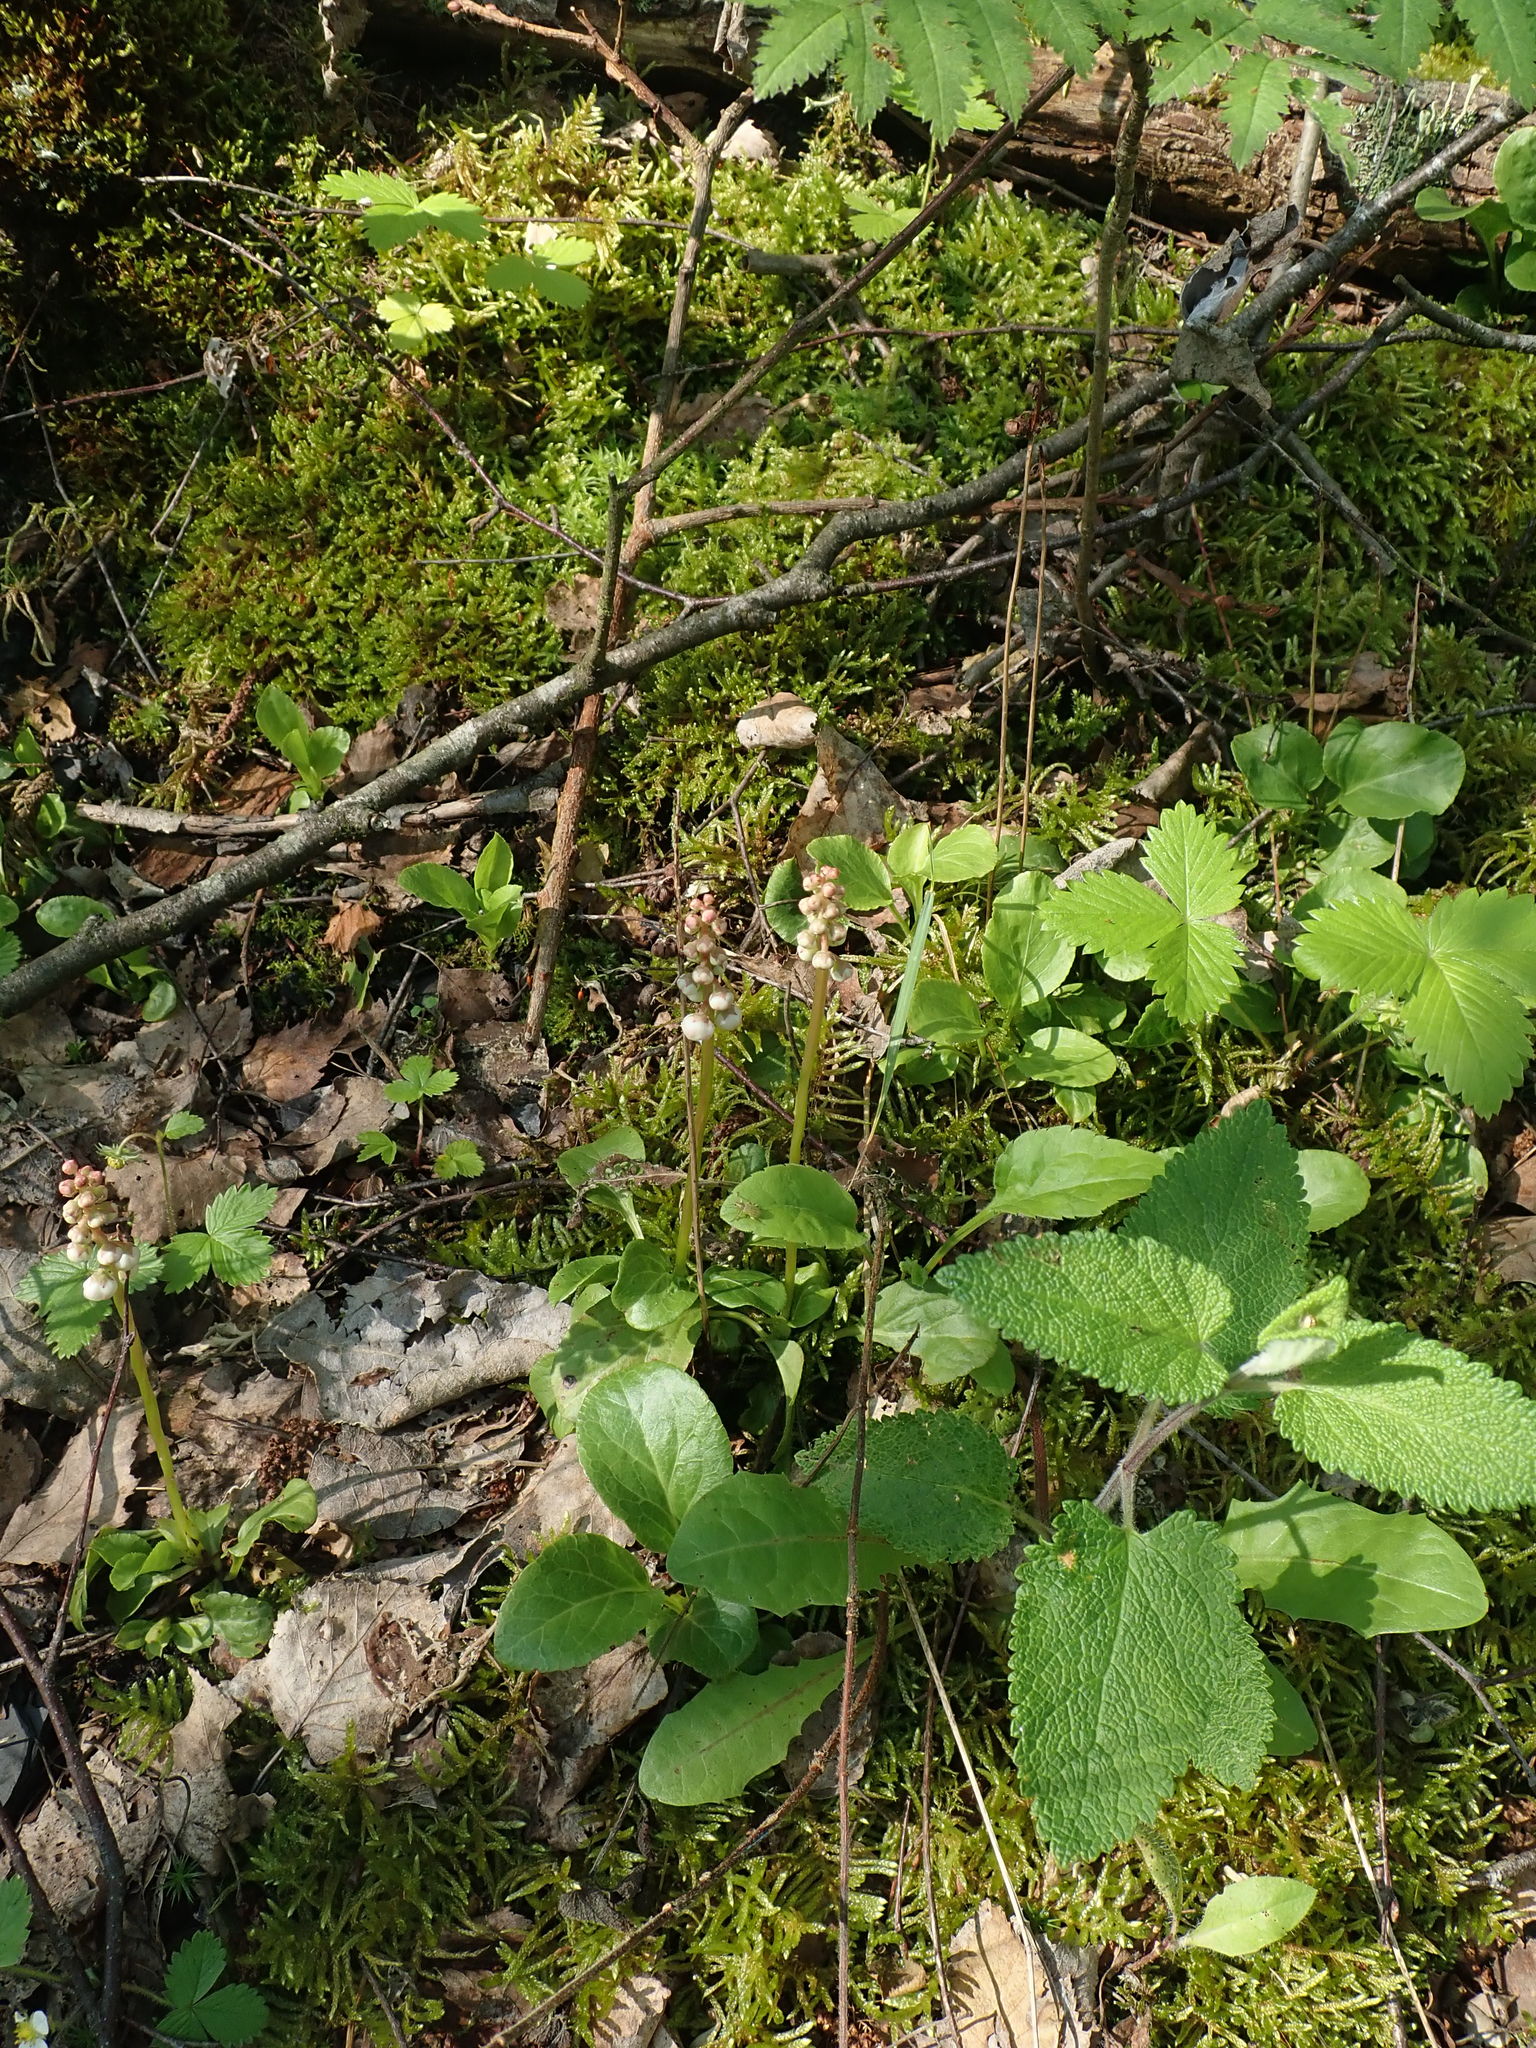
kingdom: Plantae
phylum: Tracheophyta
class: Magnoliopsida
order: Ericales
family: Ericaceae
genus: Pyrola
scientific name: Pyrola minor
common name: Common wintergreen
